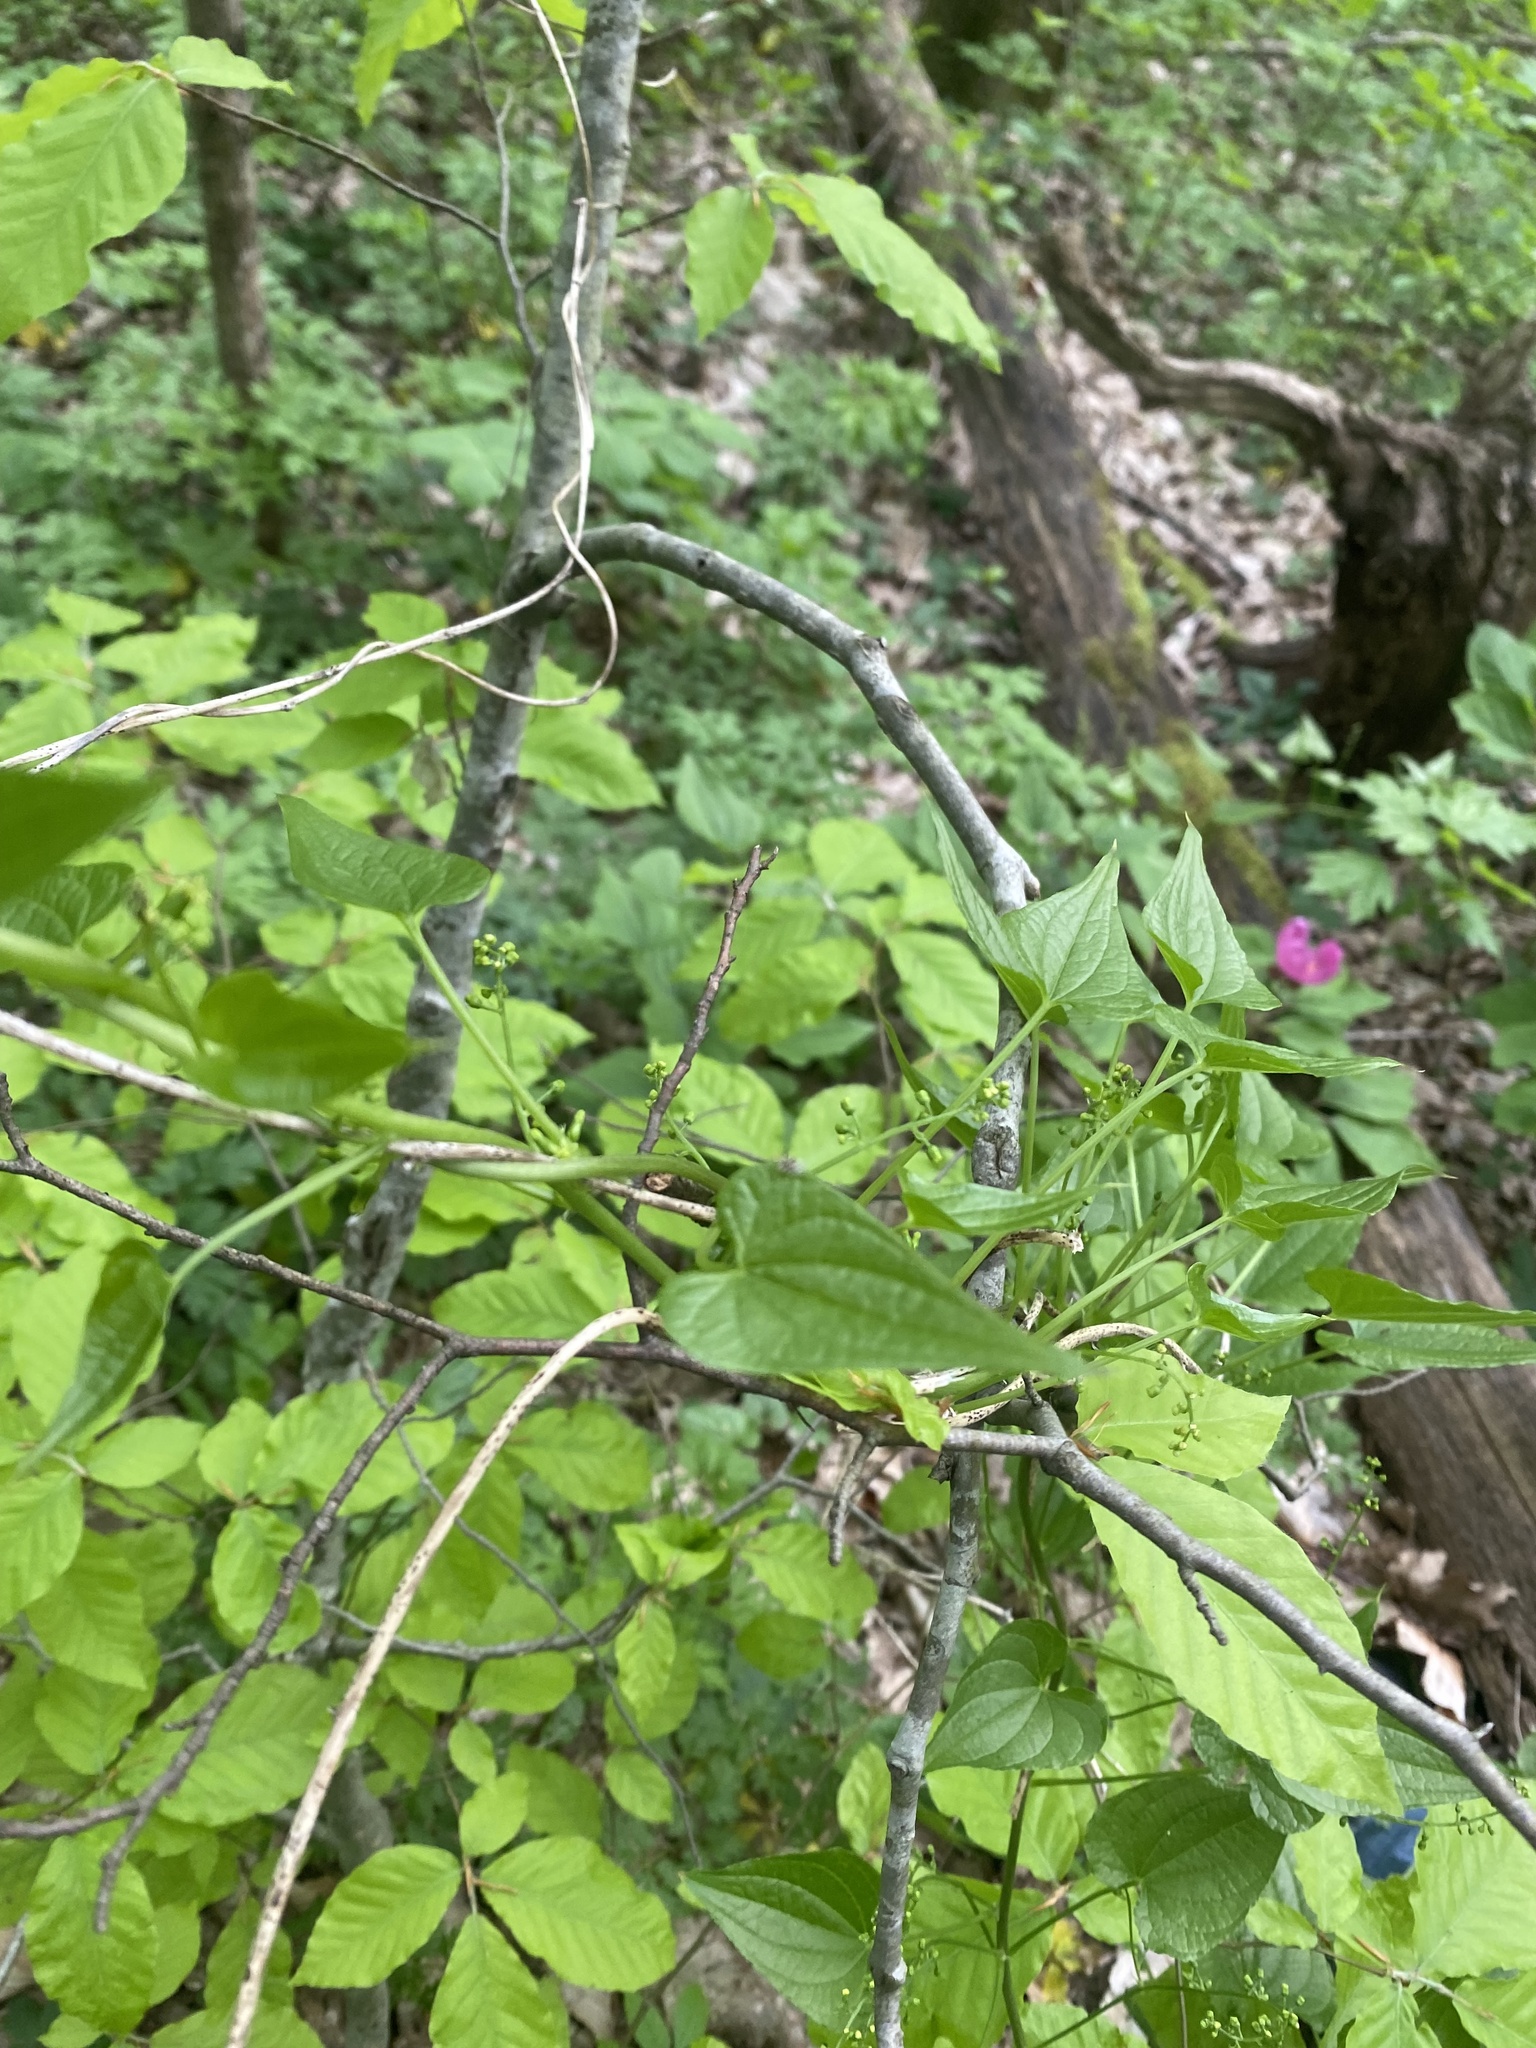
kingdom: Plantae
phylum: Tracheophyta
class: Liliopsida
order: Dioscoreales
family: Dioscoreaceae
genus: Dioscorea
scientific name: Dioscorea communis
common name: Black-bindweed
